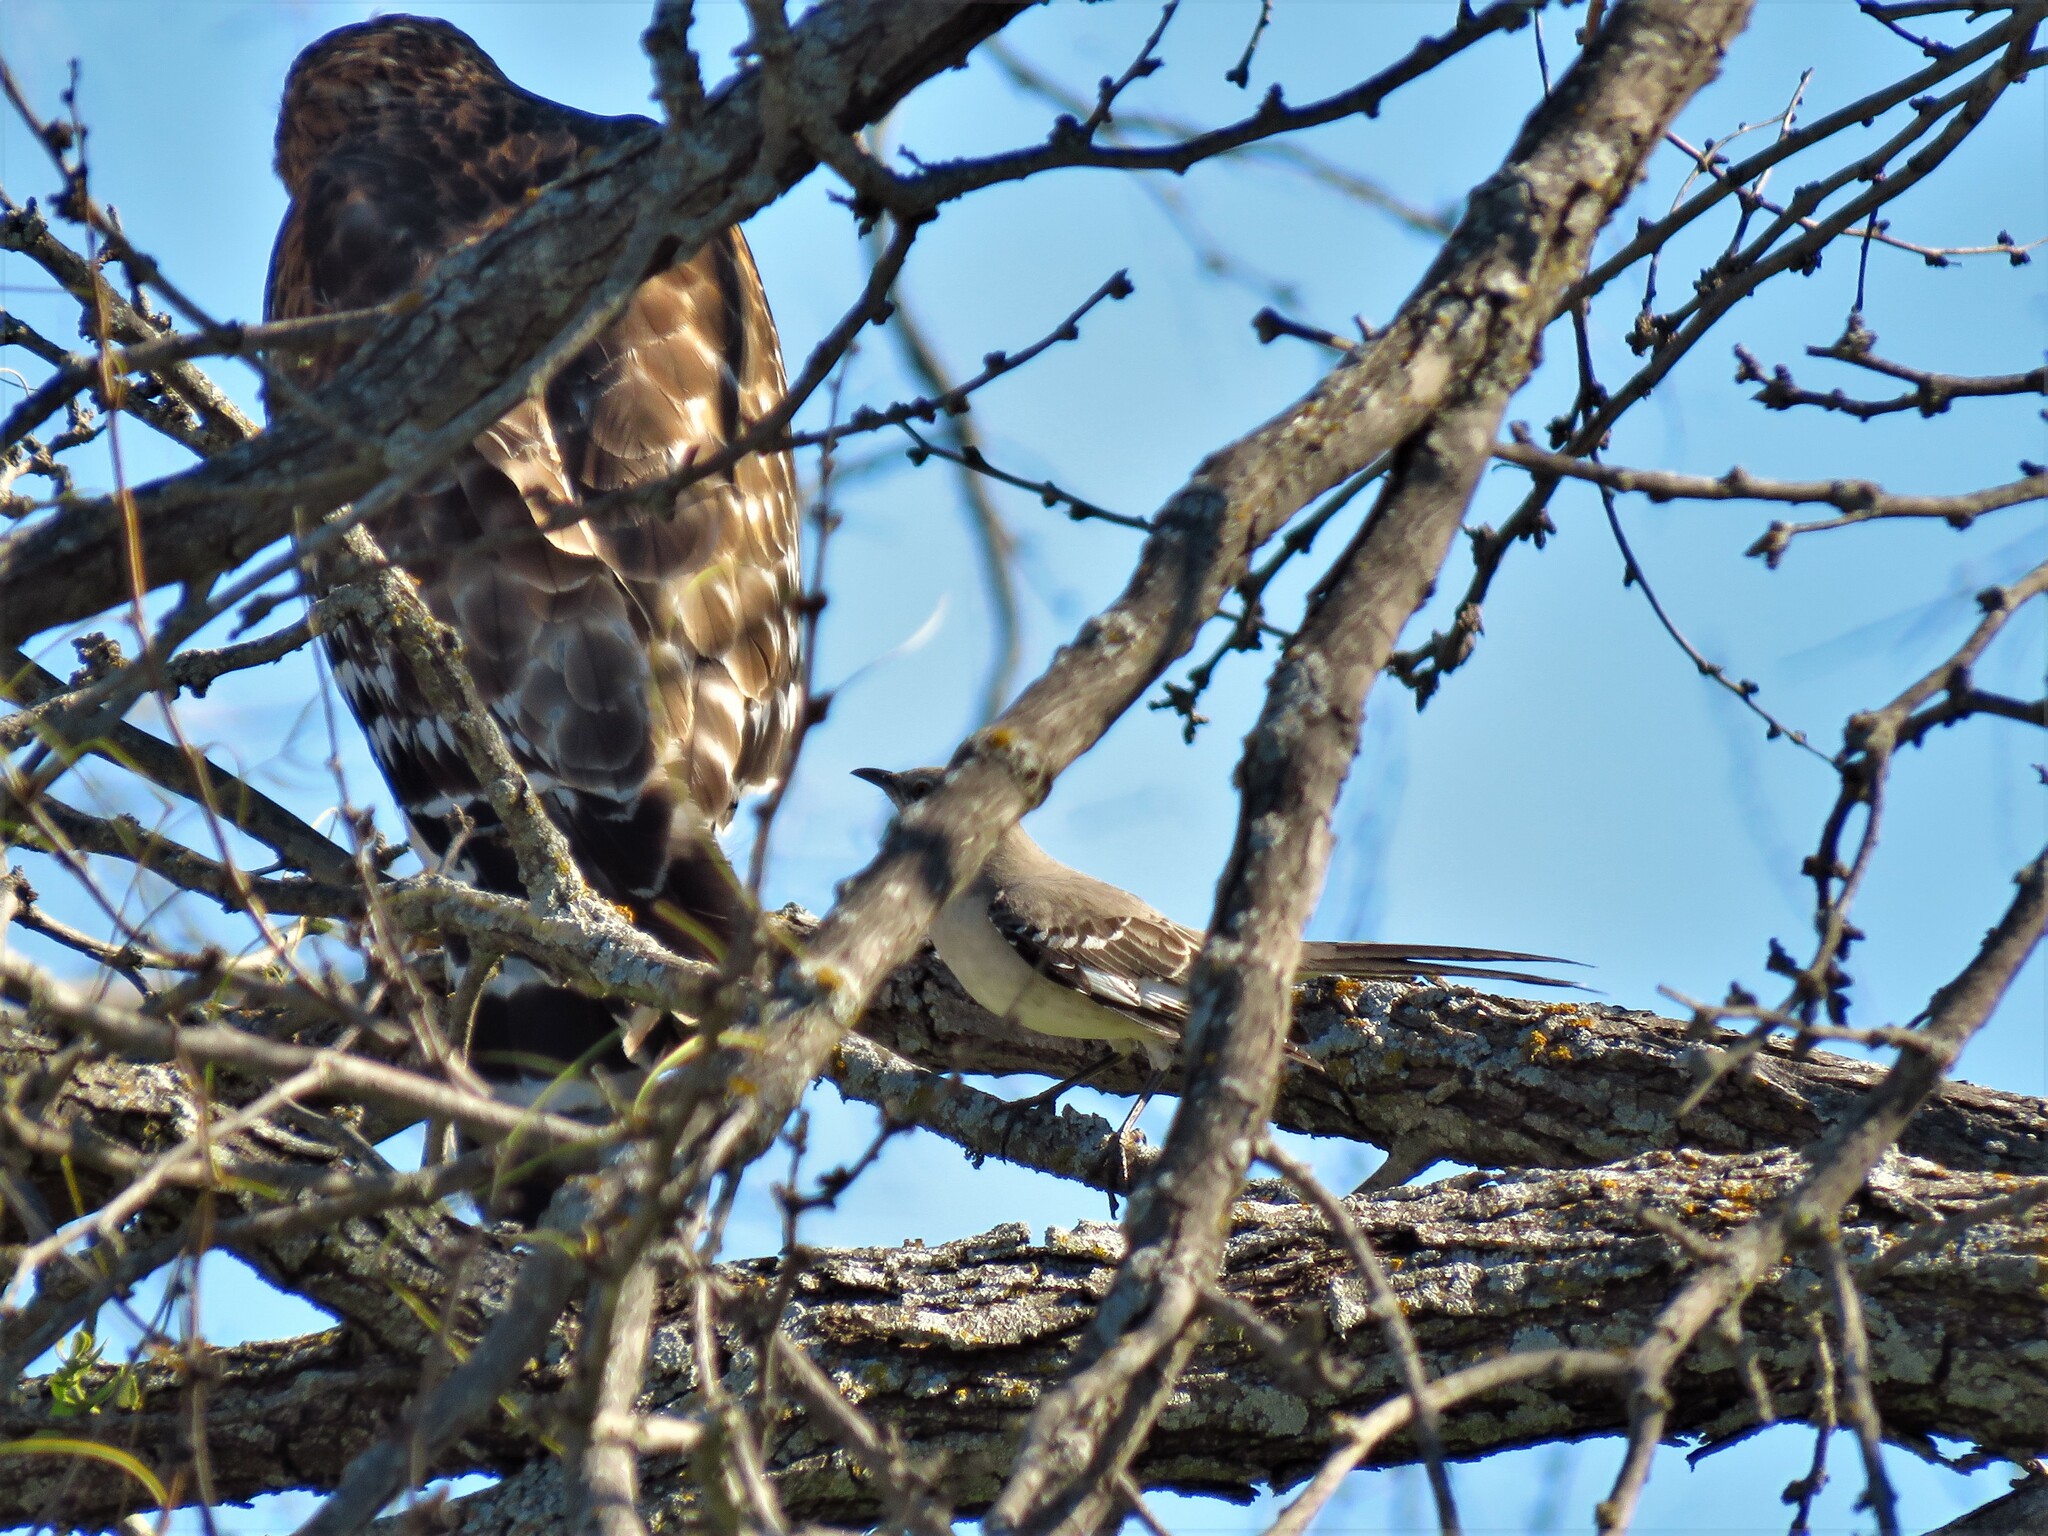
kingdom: Animalia
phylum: Chordata
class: Aves
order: Passeriformes
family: Mimidae
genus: Mimus
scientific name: Mimus polyglottos
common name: Northern mockingbird
